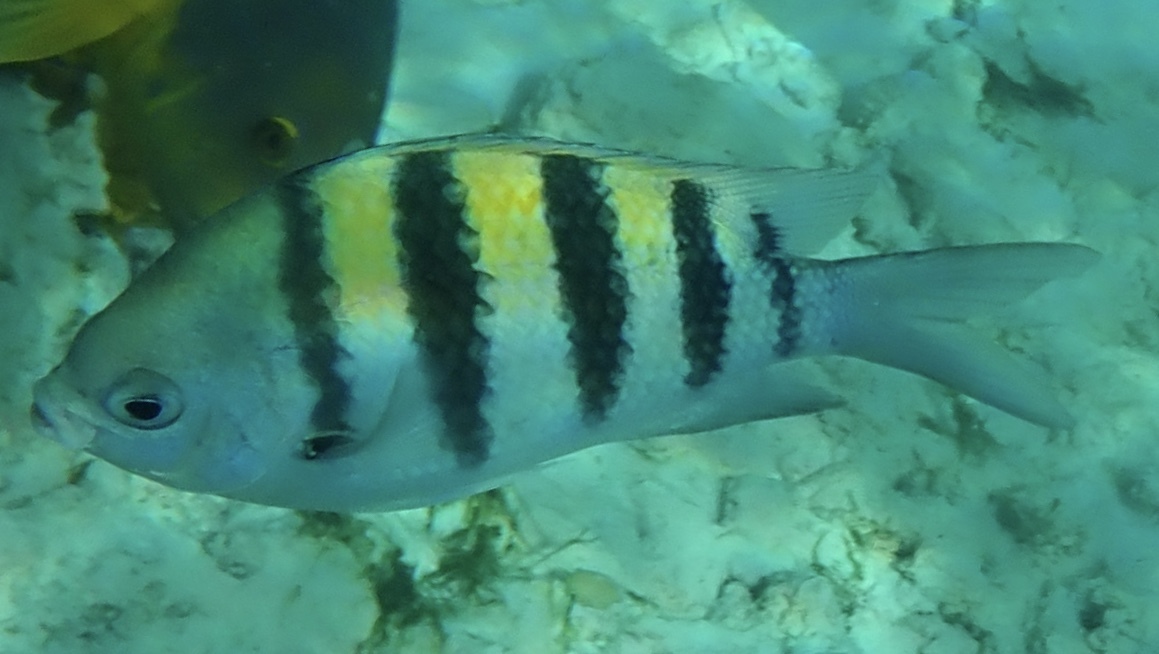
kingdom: Animalia
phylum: Chordata
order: Perciformes
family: Pomacentridae
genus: Abudefduf
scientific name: Abudefduf saxatilis
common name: Sergeant major
